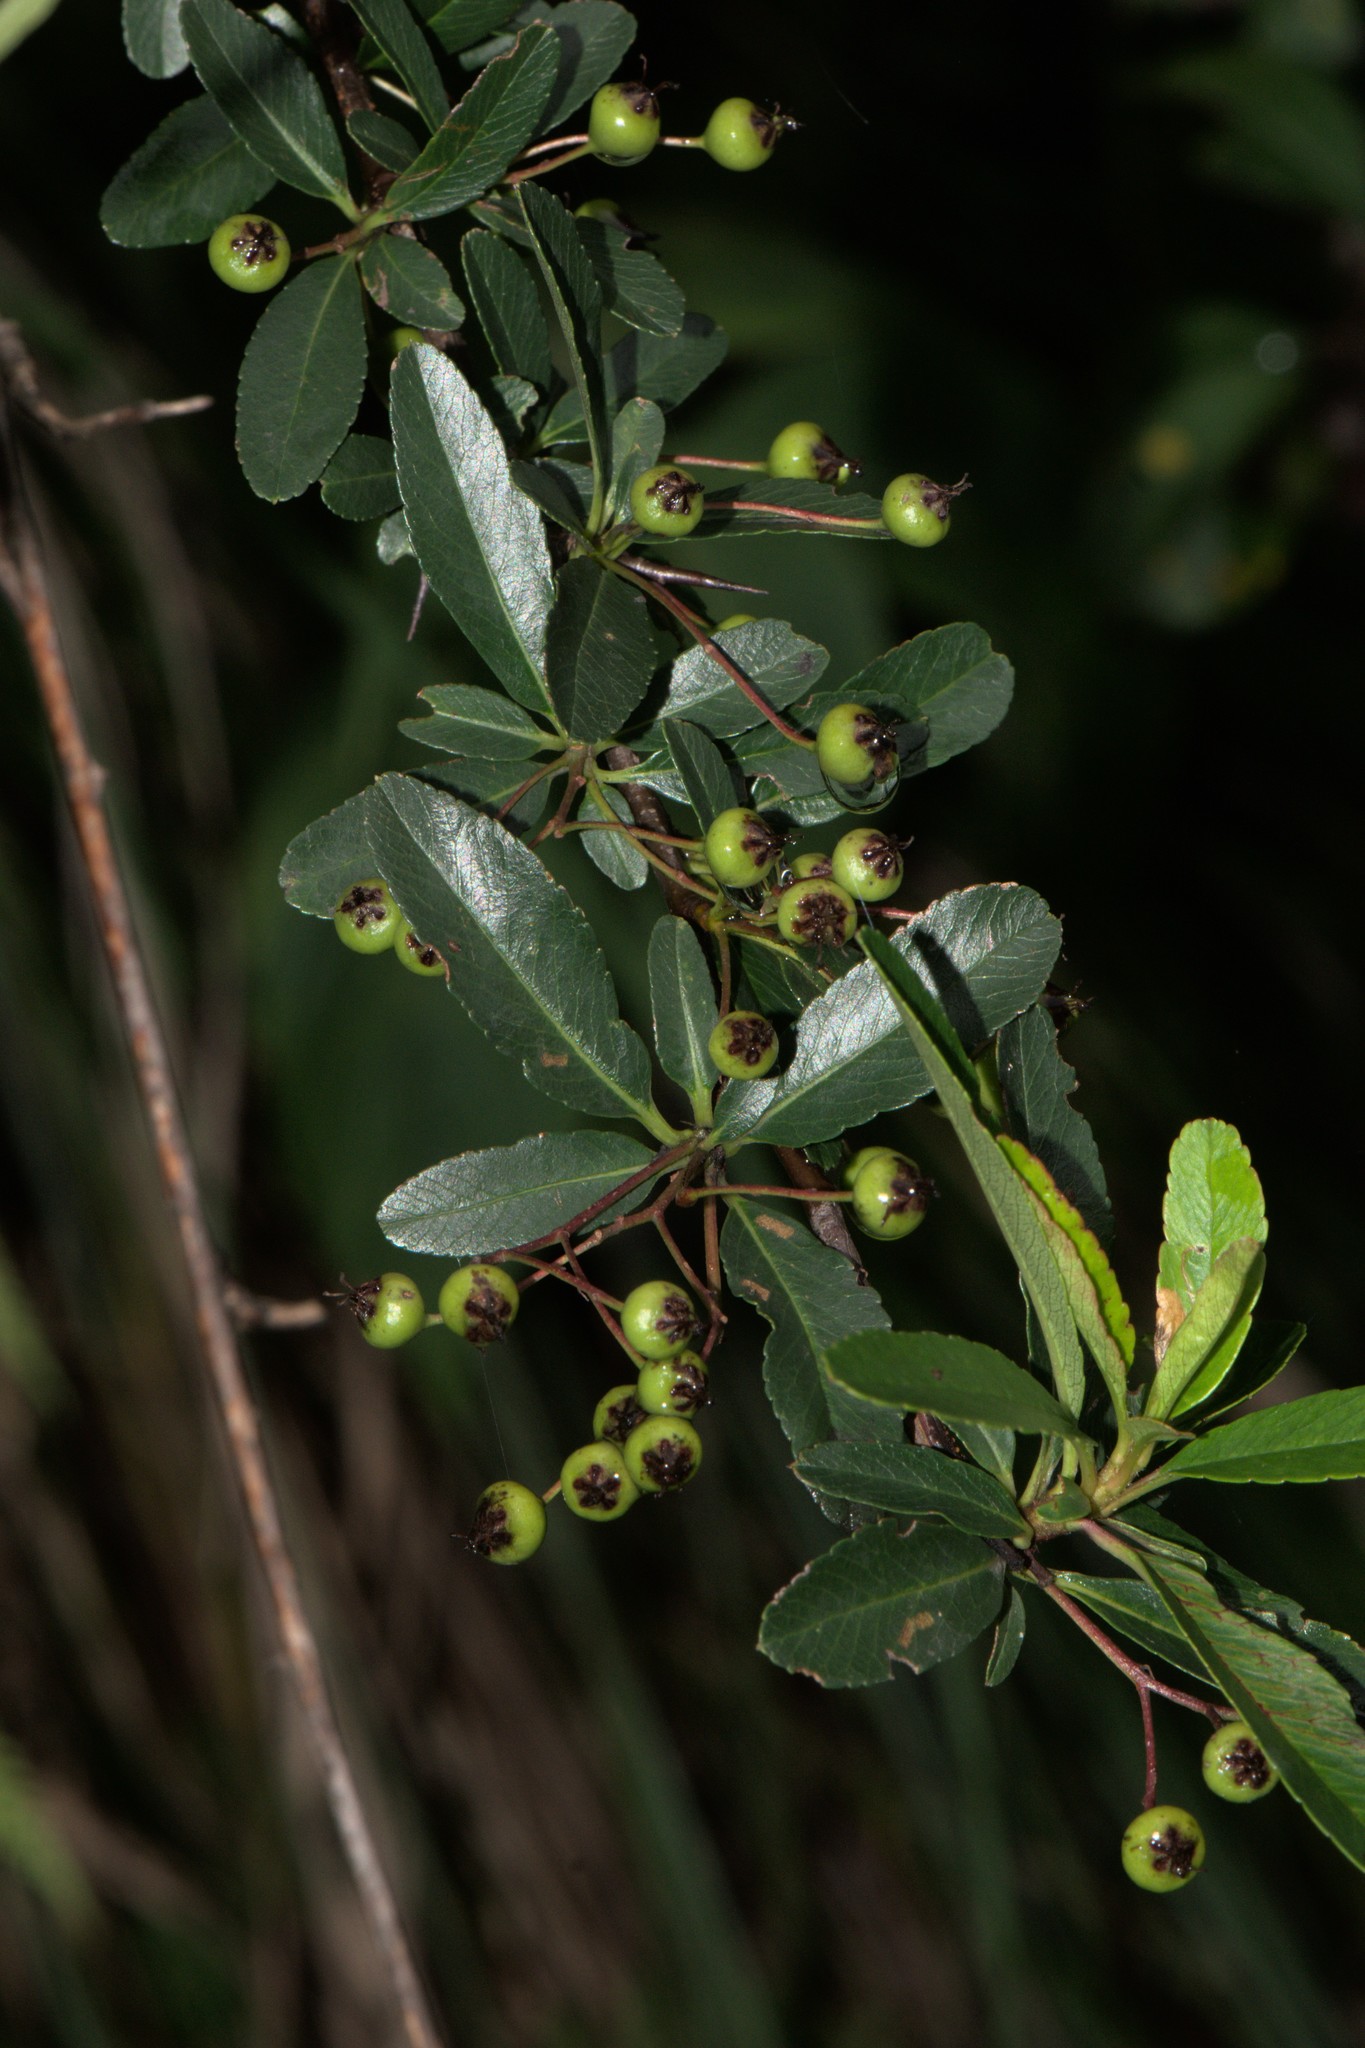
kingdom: Plantae
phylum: Tracheophyta
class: Magnoliopsida
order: Rosales
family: Rosaceae
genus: Pyracantha
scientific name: Pyracantha crenulata
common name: Nepalese firethorn
